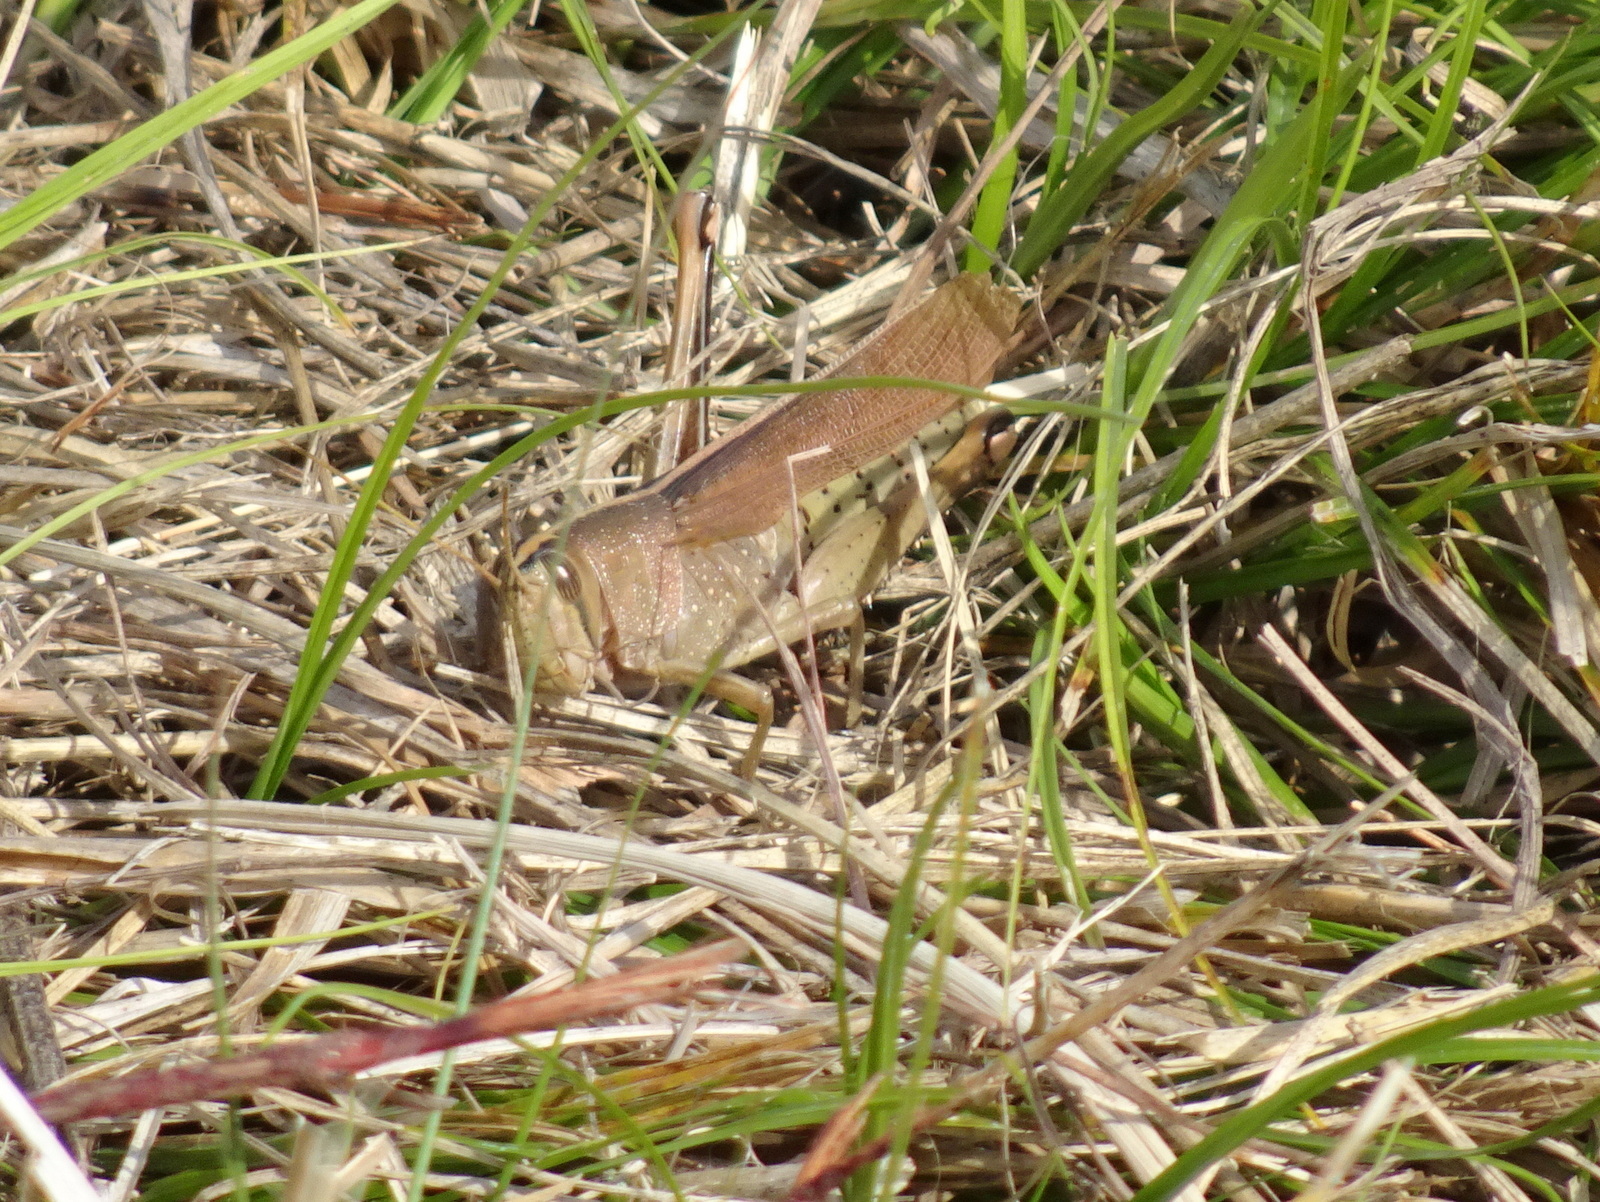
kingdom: Animalia
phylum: Arthropoda
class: Insecta
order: Orthoptera
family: Acrididae
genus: Schistocerca
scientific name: Schistocerca lineata
